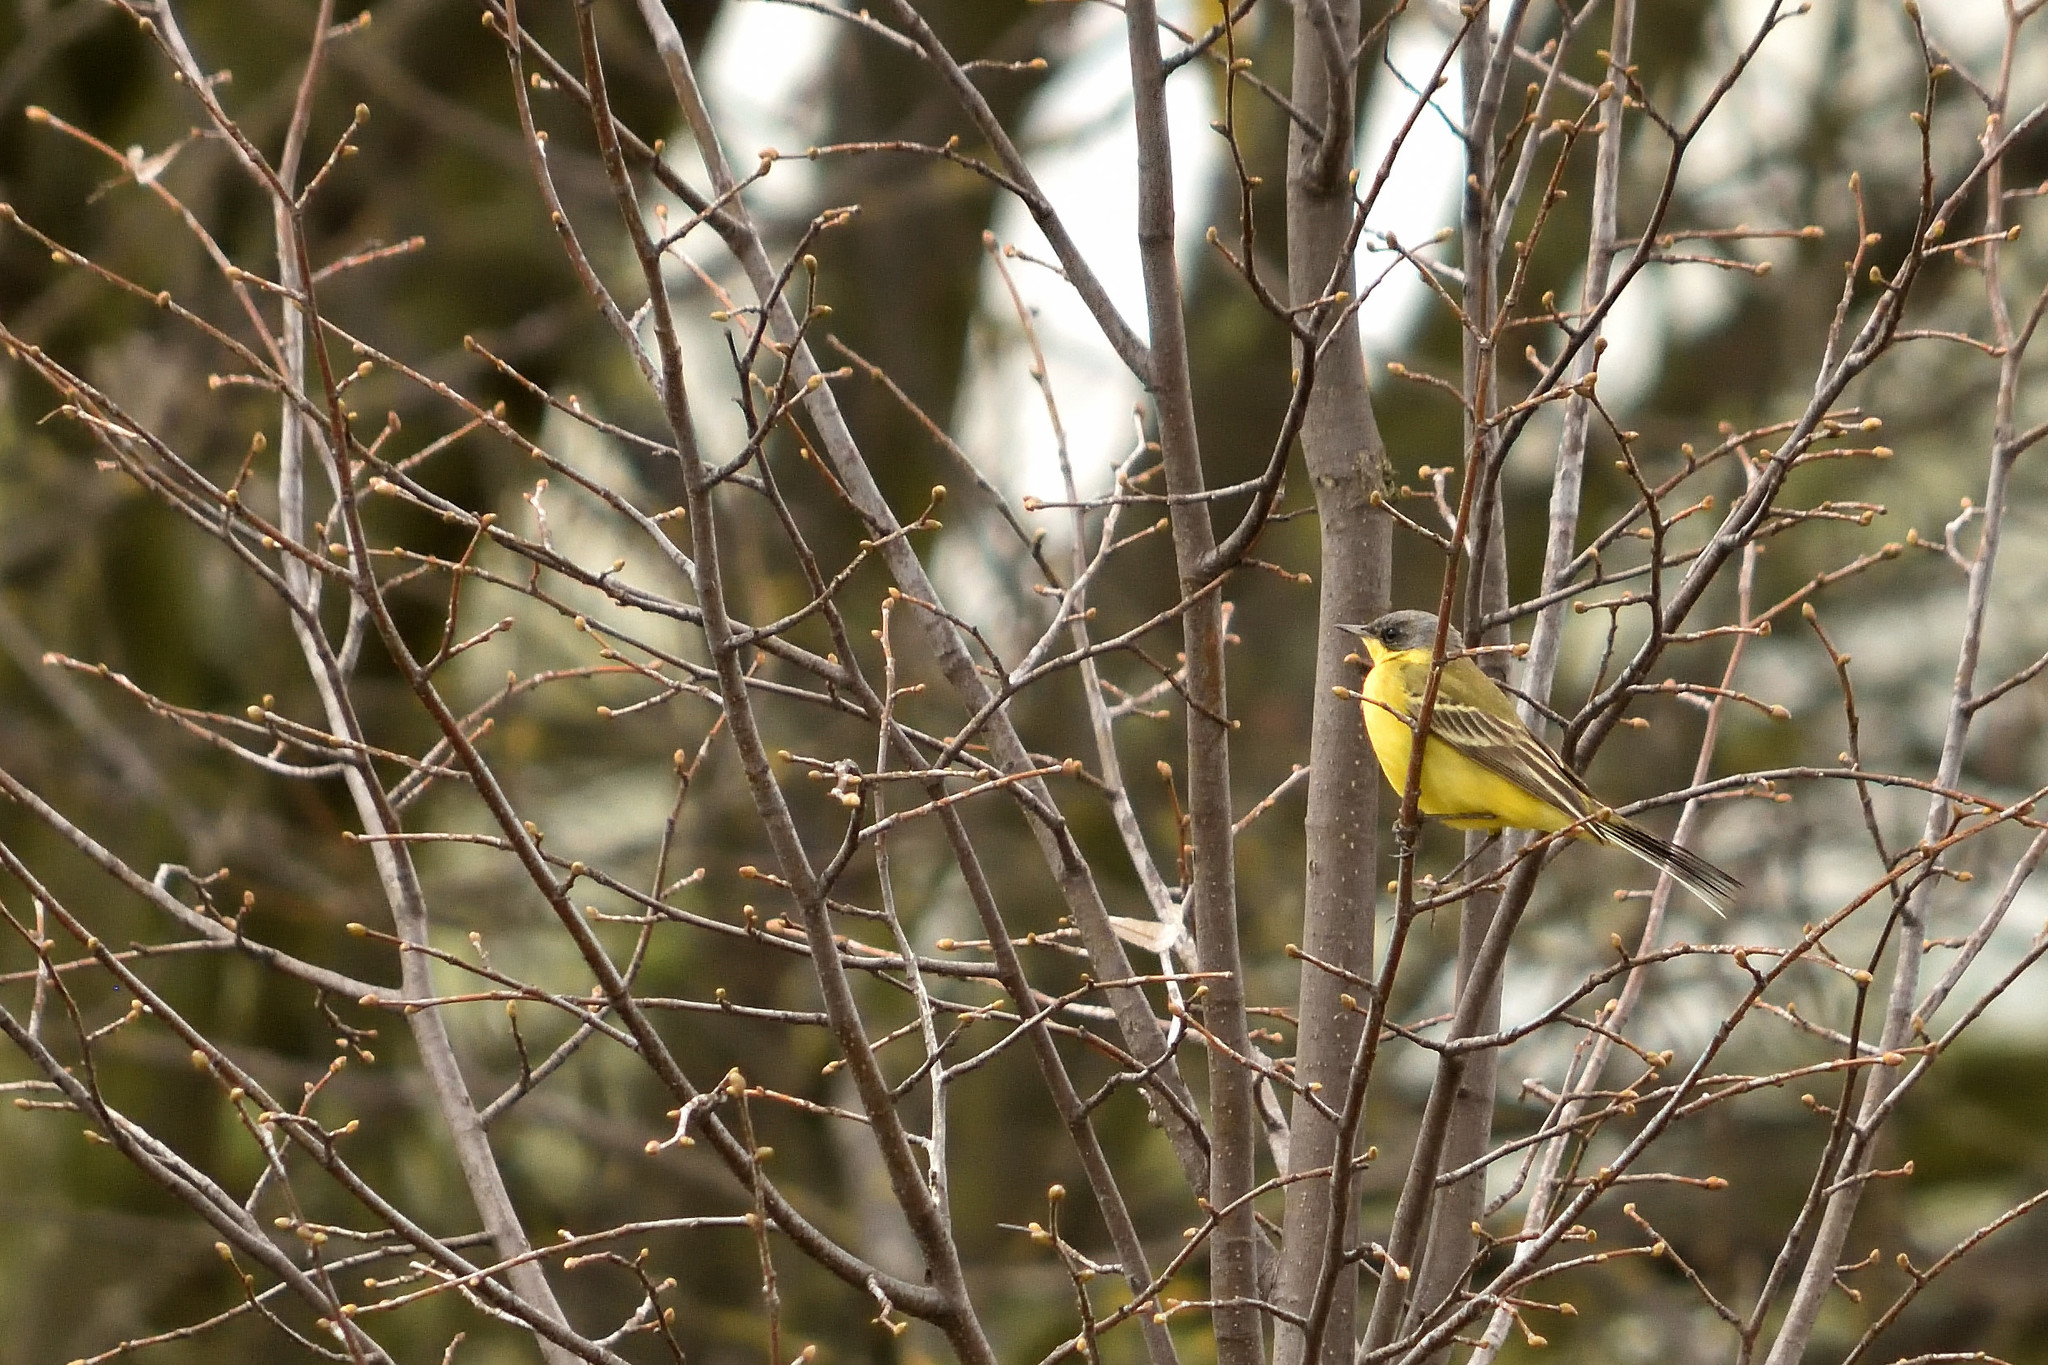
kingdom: Animalia
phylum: Chordata
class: Aves
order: Passeriformes
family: Motacillidae
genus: Motacilla
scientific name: Motacilla flava
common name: Western yellow wagtail
